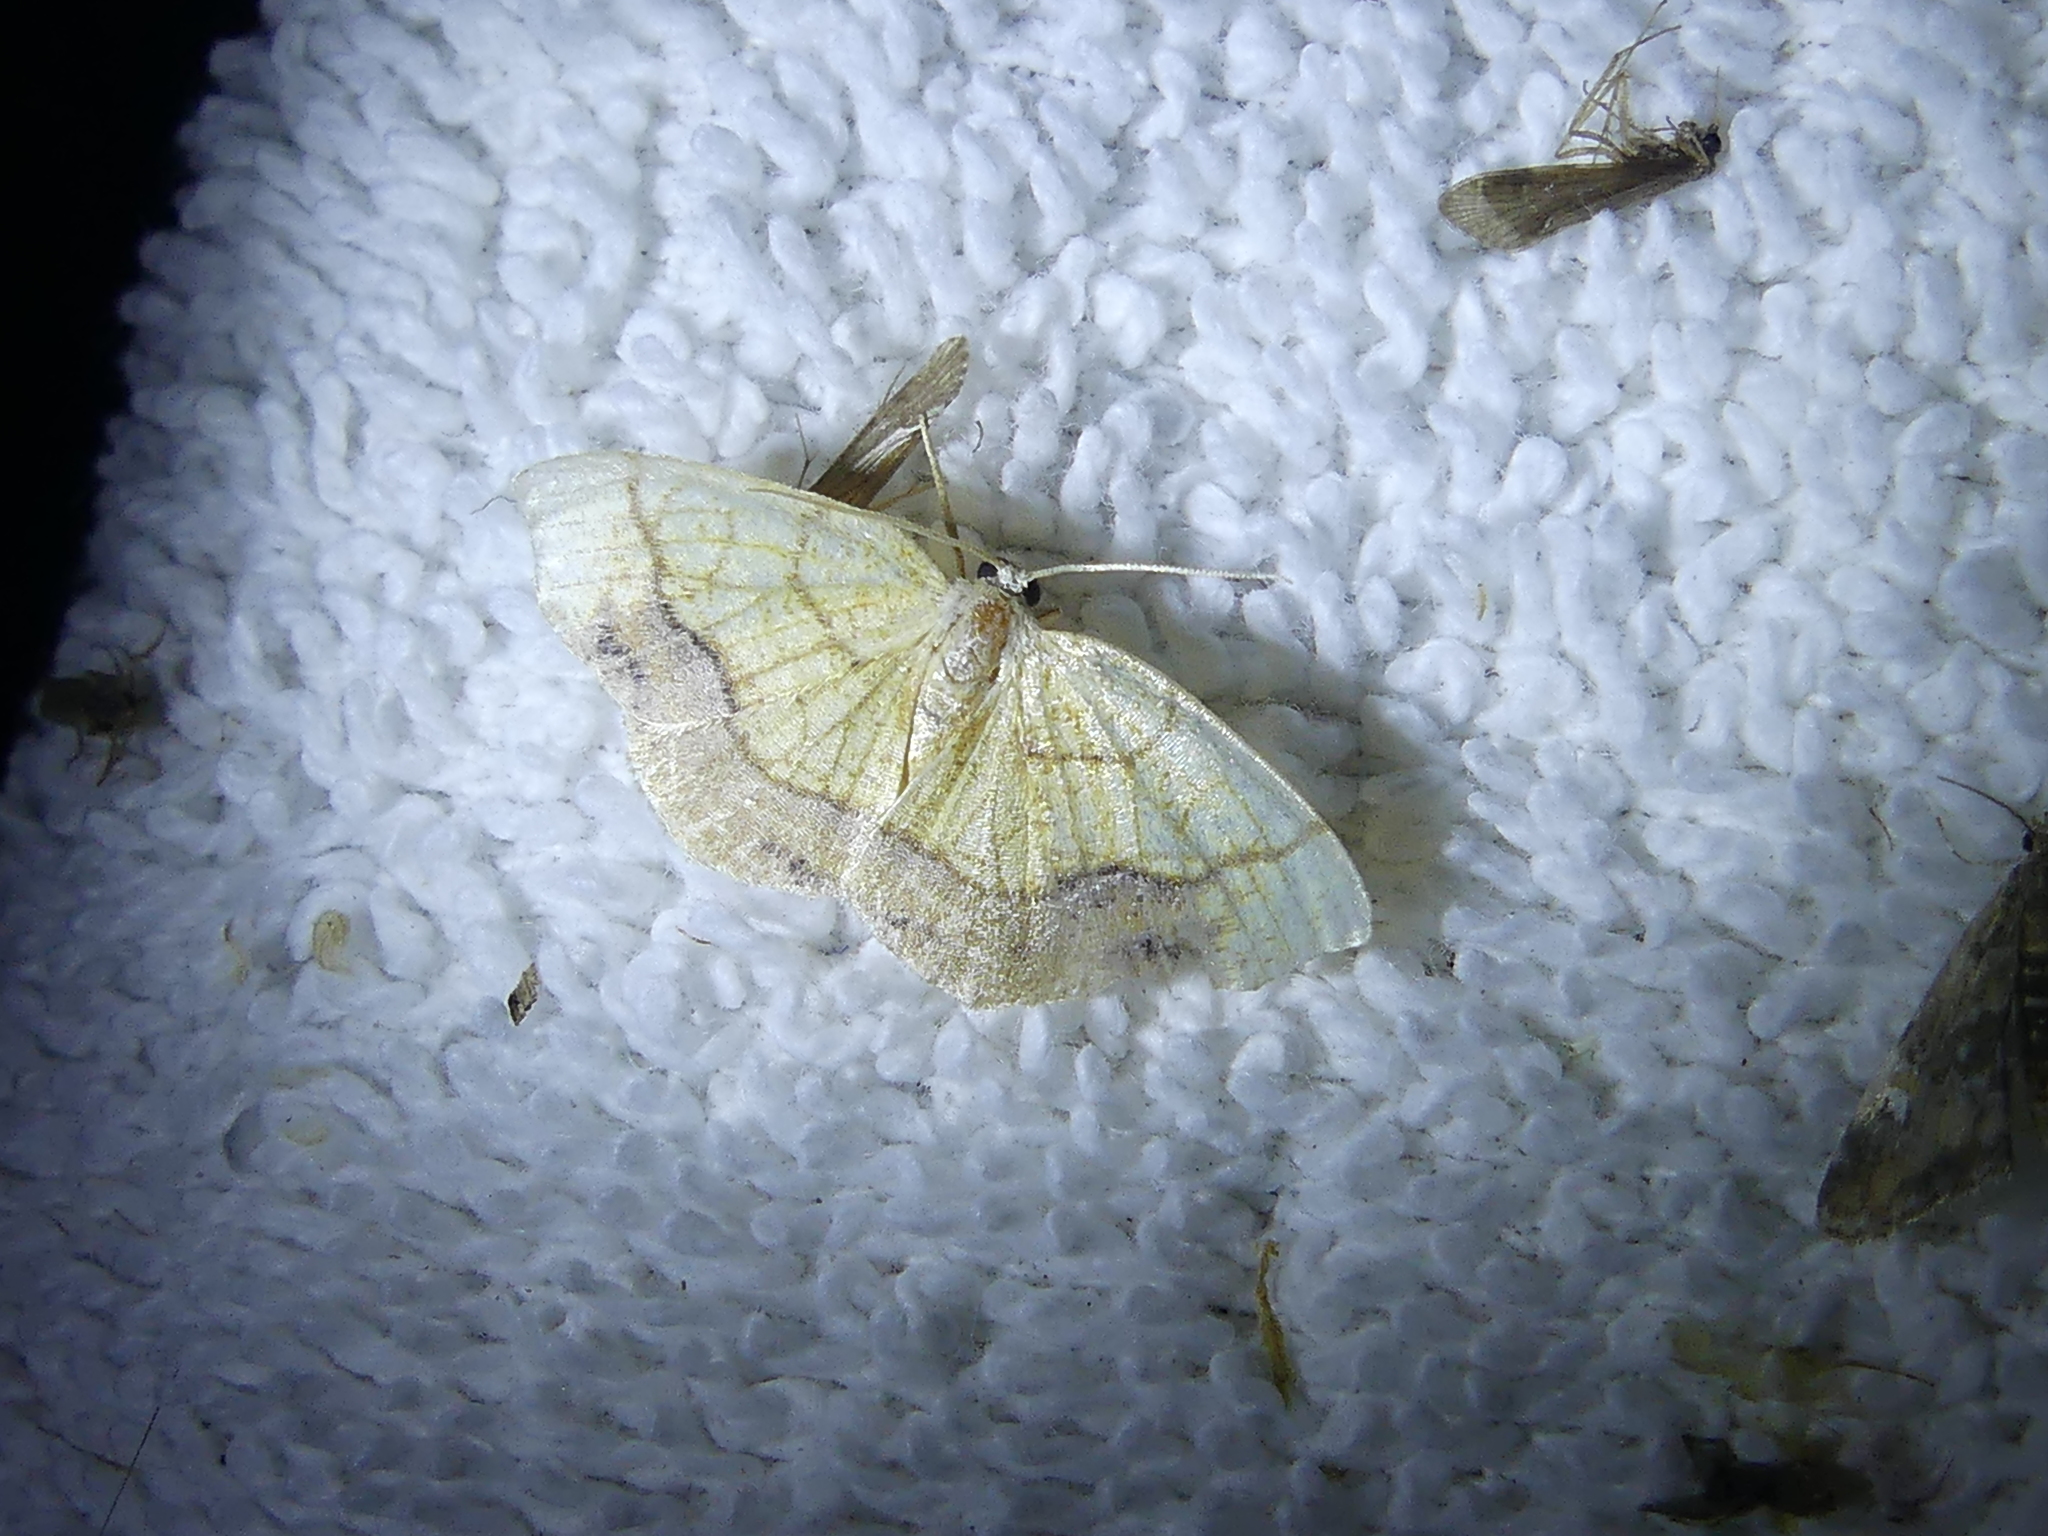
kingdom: Animalia
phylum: Arthropoda
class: Insecta
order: Lepidoptera
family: Geometridae
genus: Nematocampa
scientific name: Nematocampa resistaria
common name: Horned spanworm moth
